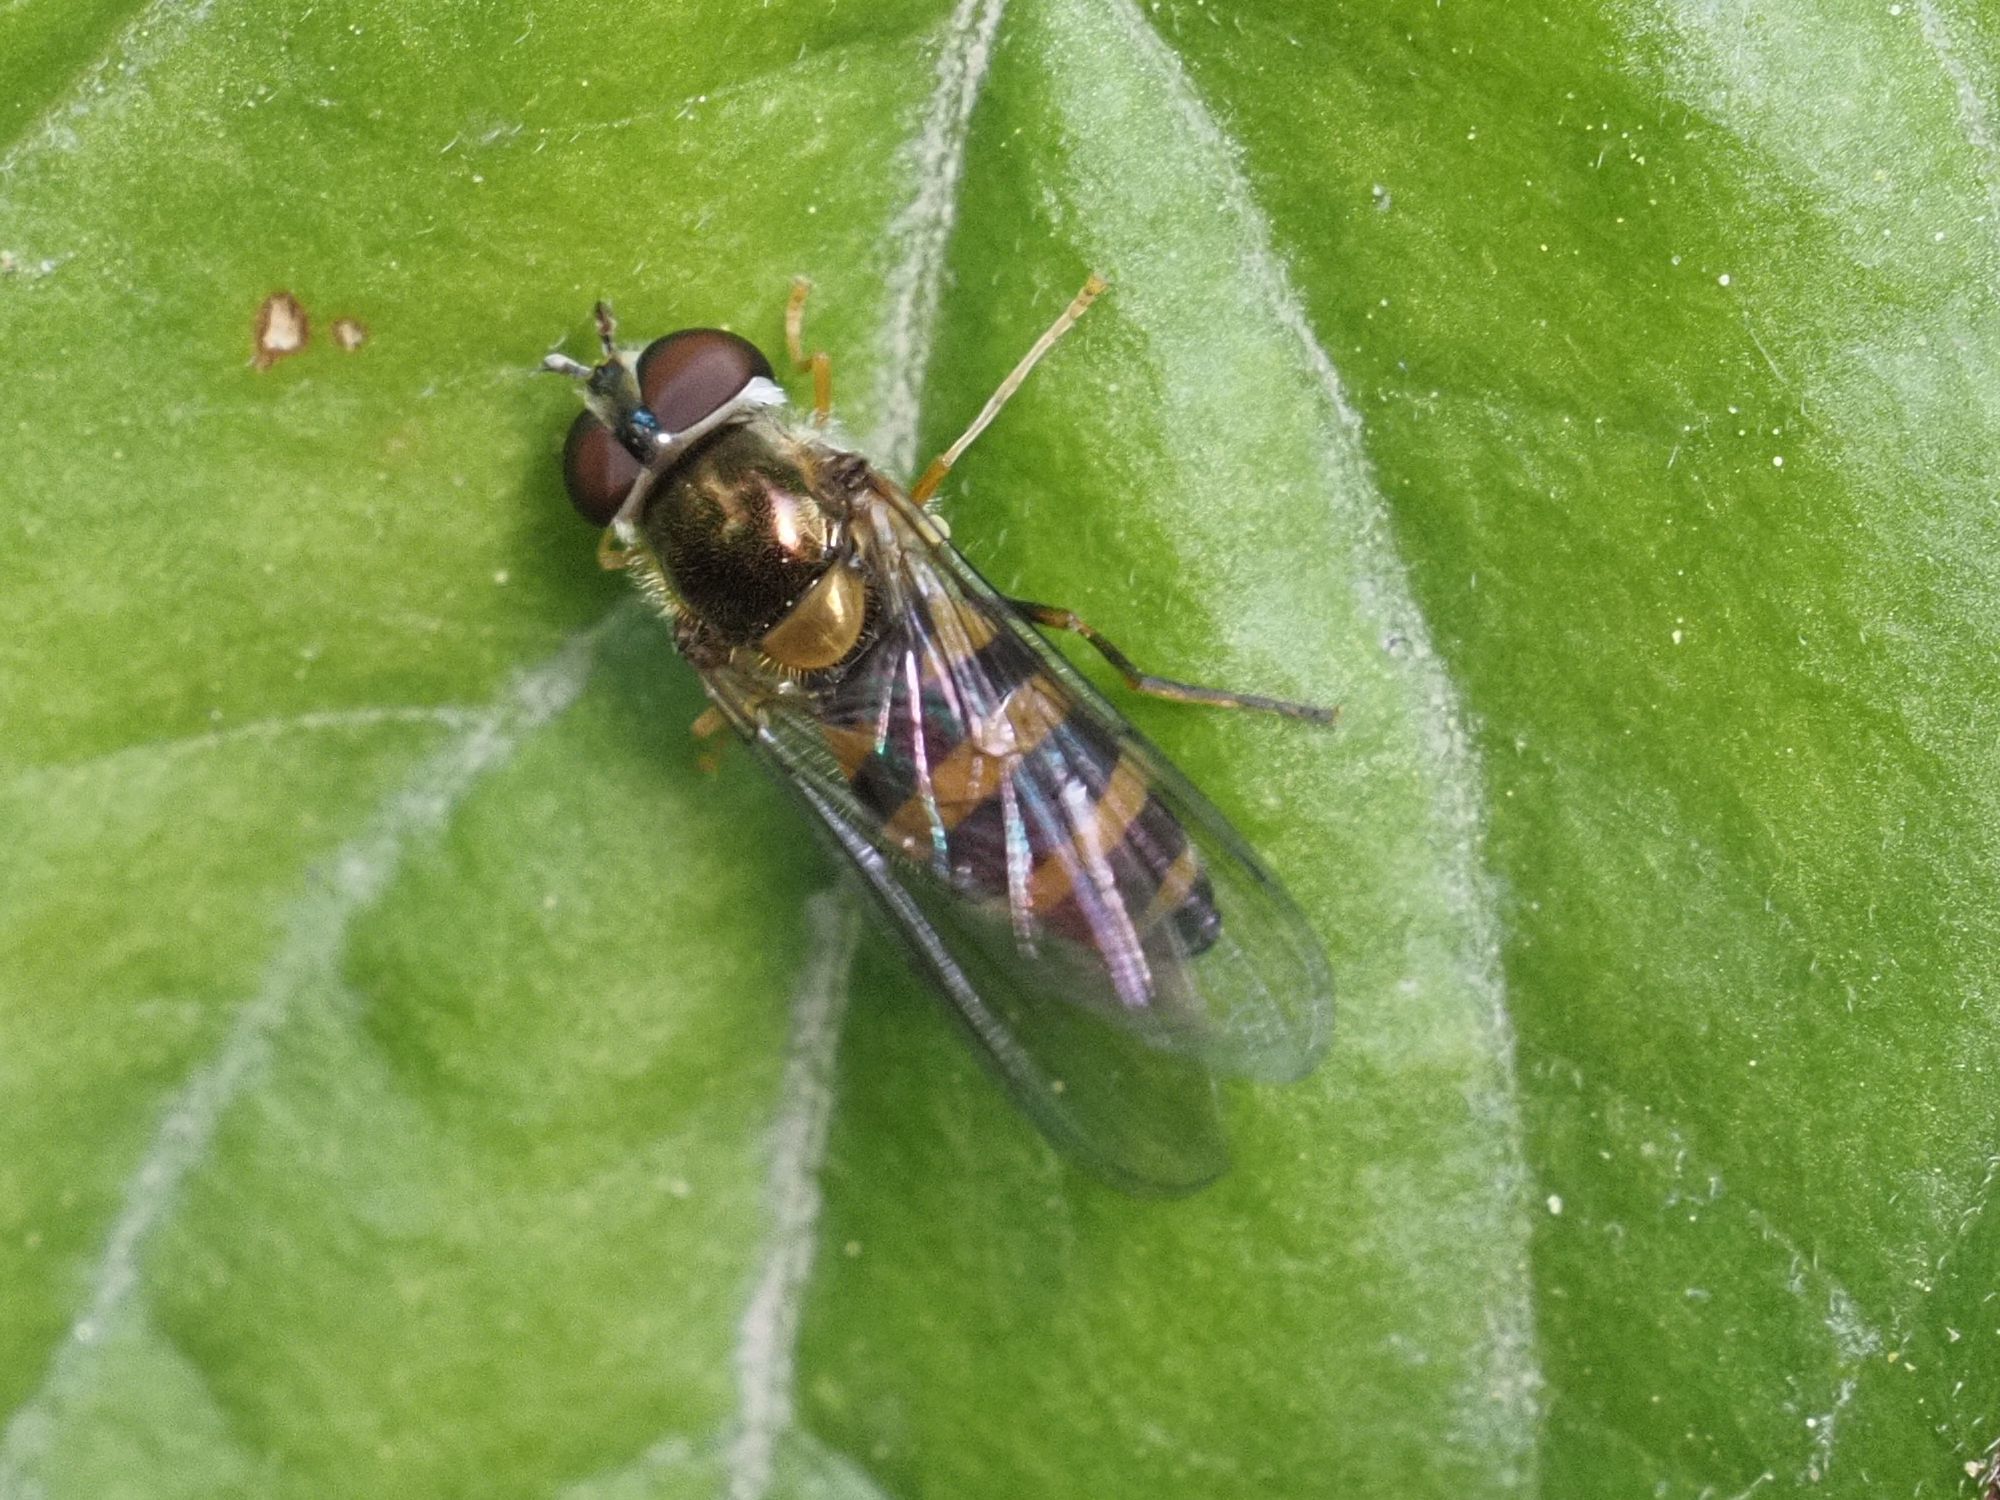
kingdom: Animalia
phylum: Arthropoda
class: Insecta
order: Diptera
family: Syrphidae
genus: Fagisyrphus
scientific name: Fagisyrphus cincta
